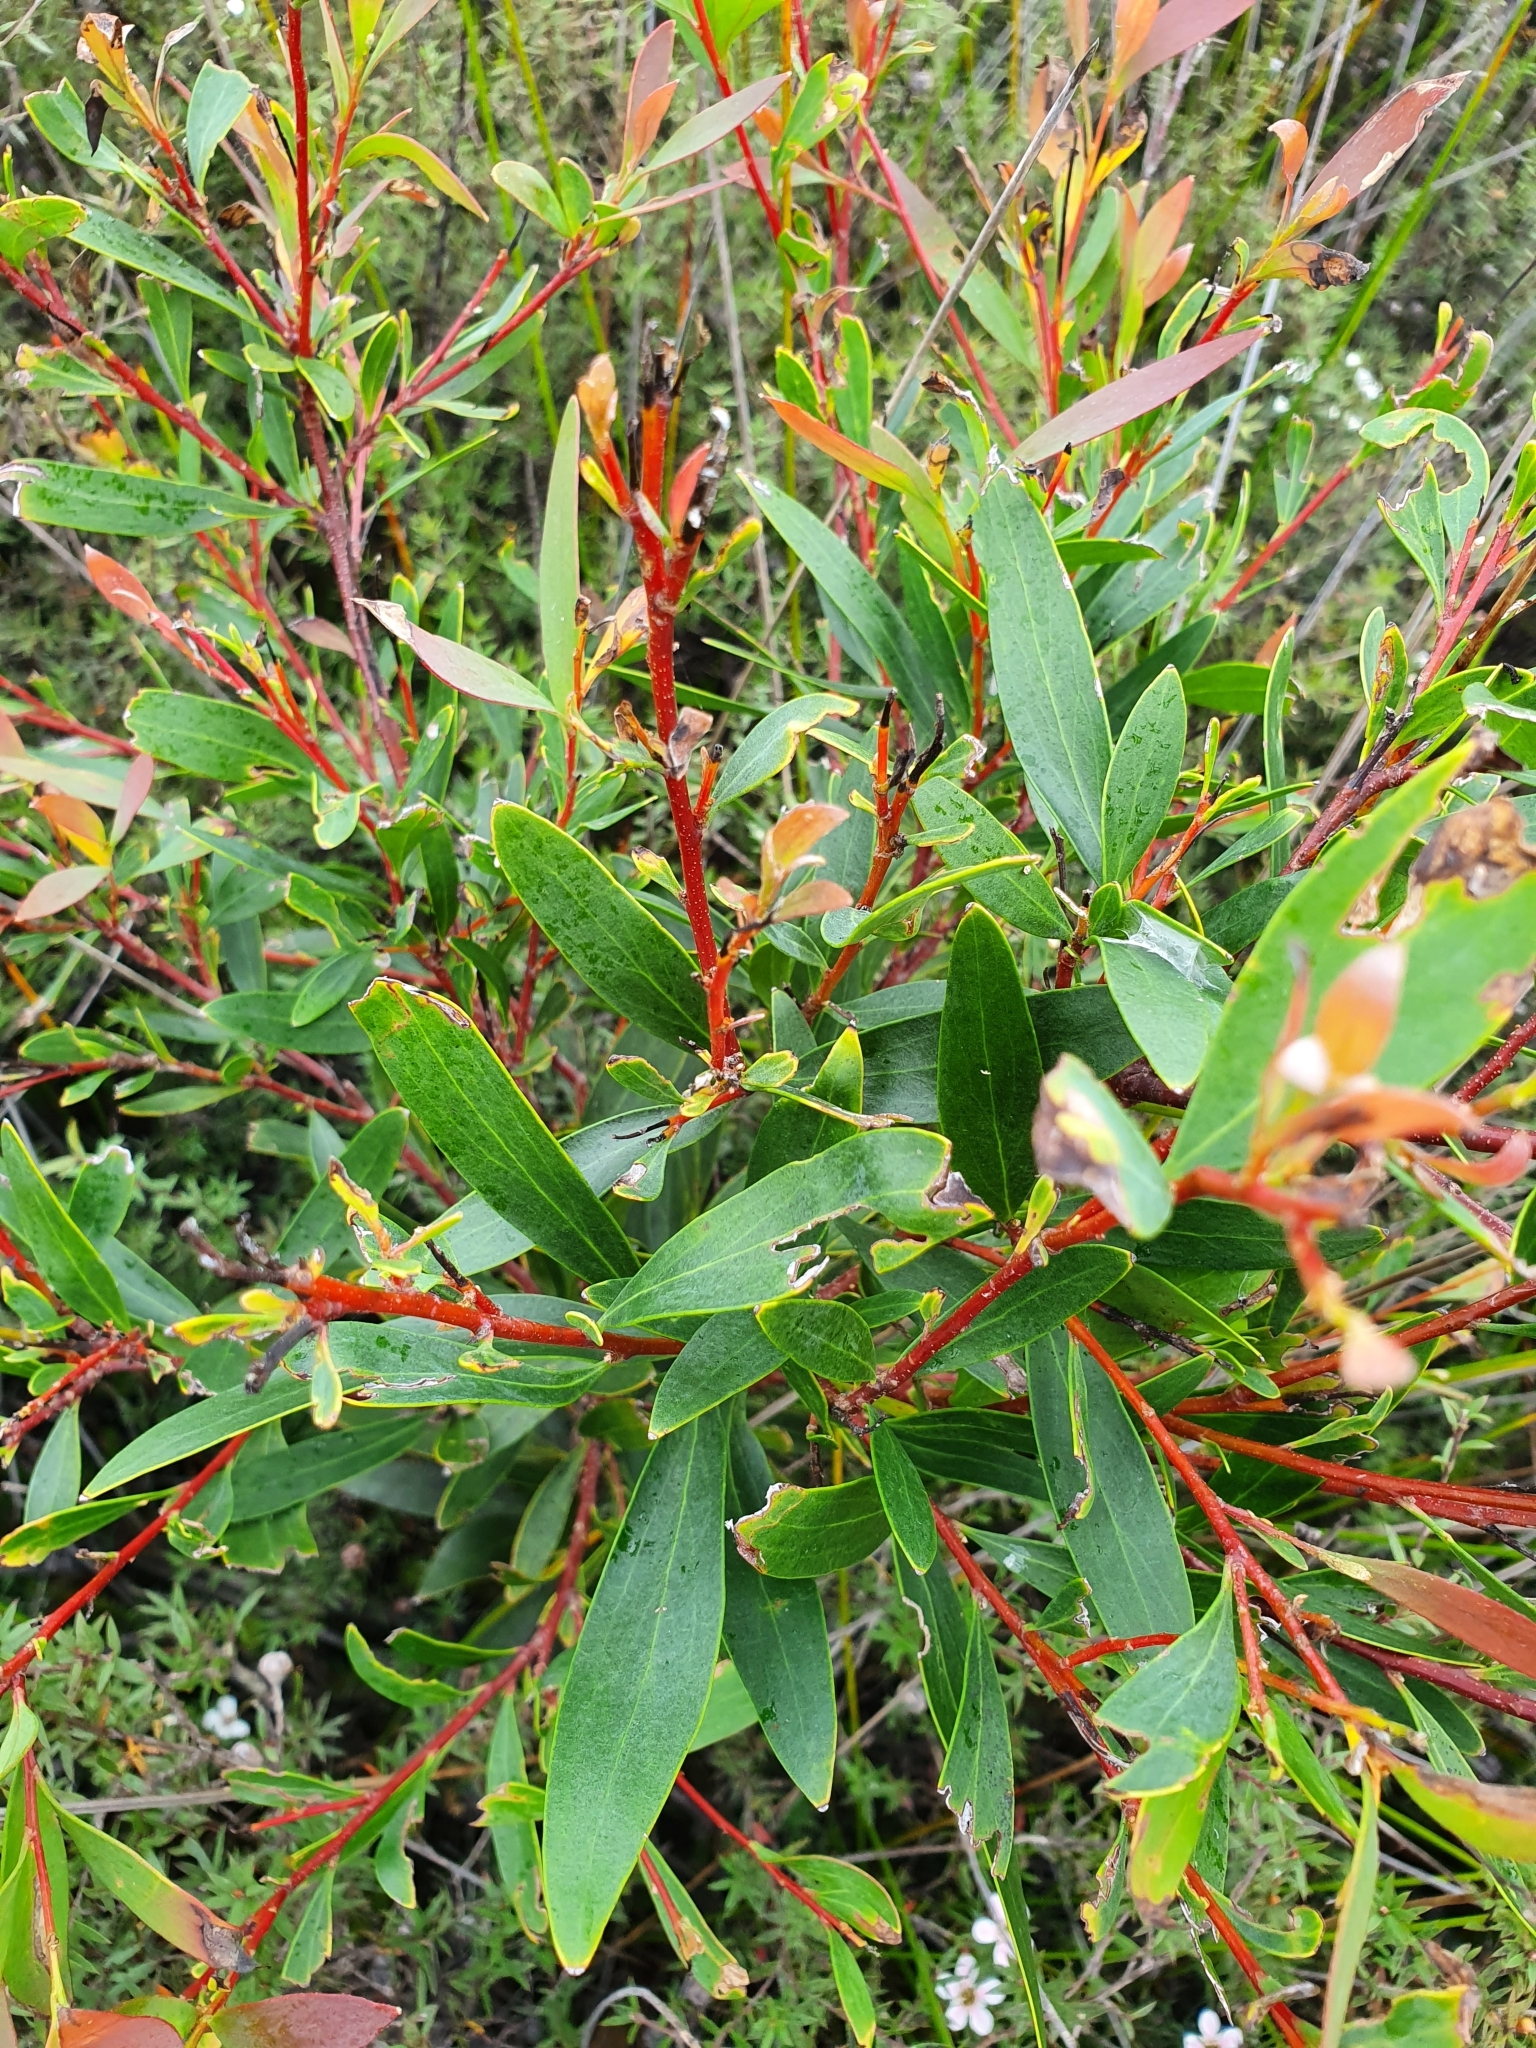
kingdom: Plantae
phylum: Tracheophyta
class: Magnoliopsida
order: Proteales
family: Proteaceae
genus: Hakea
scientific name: Hakea salicifolia
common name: Willow hakea
